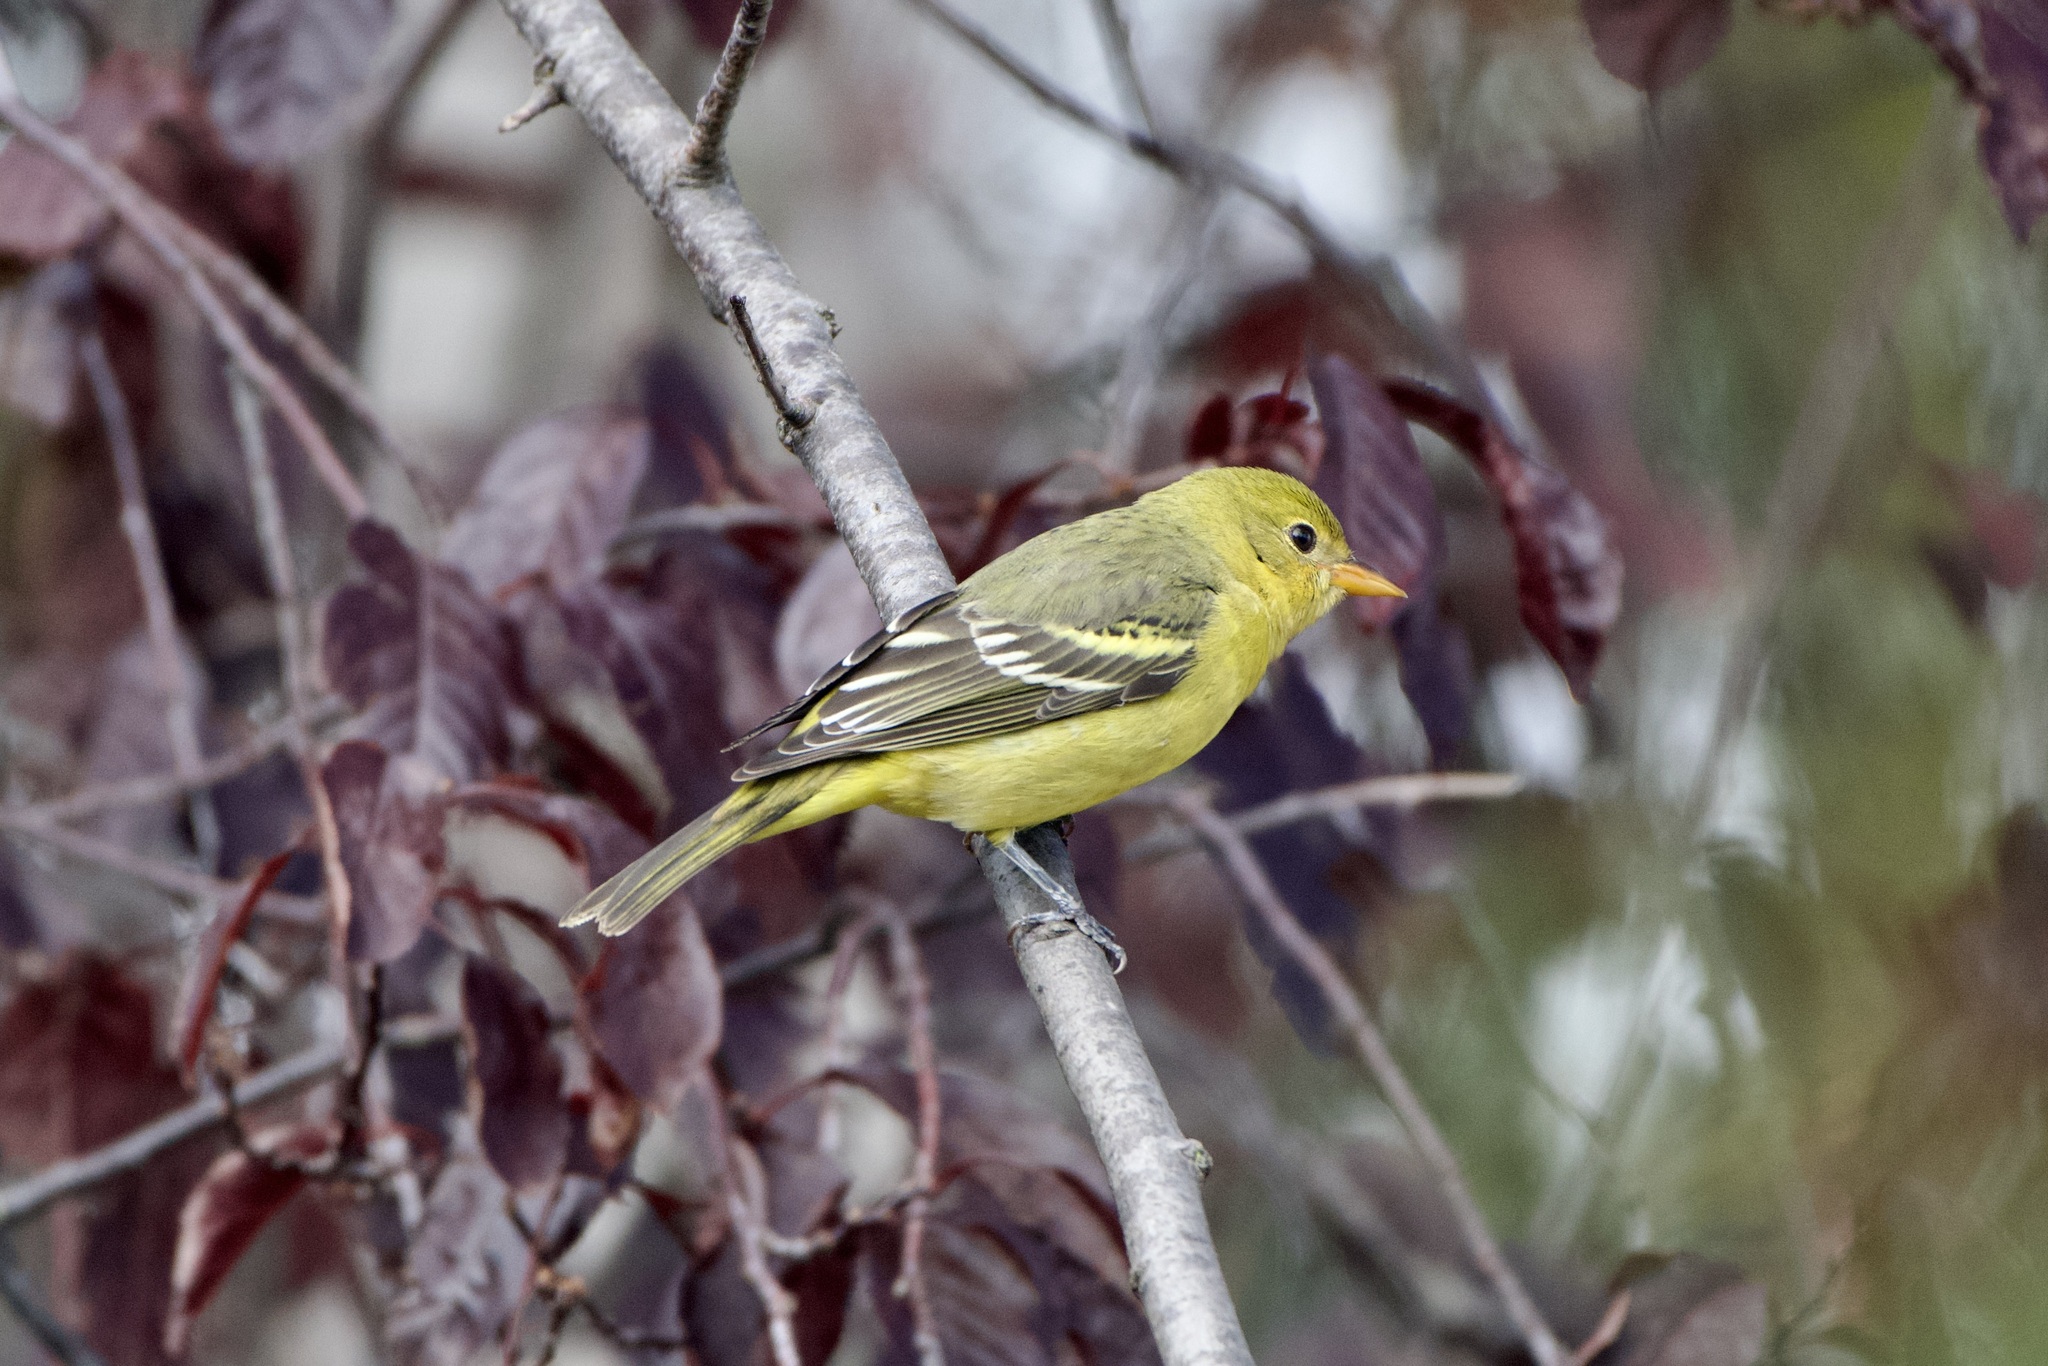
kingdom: Animalia
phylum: Chordata
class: Aves
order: Passeriformes
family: Cardinalidae
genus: Piranga
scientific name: Piranga ludoviciana
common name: Western tanager
